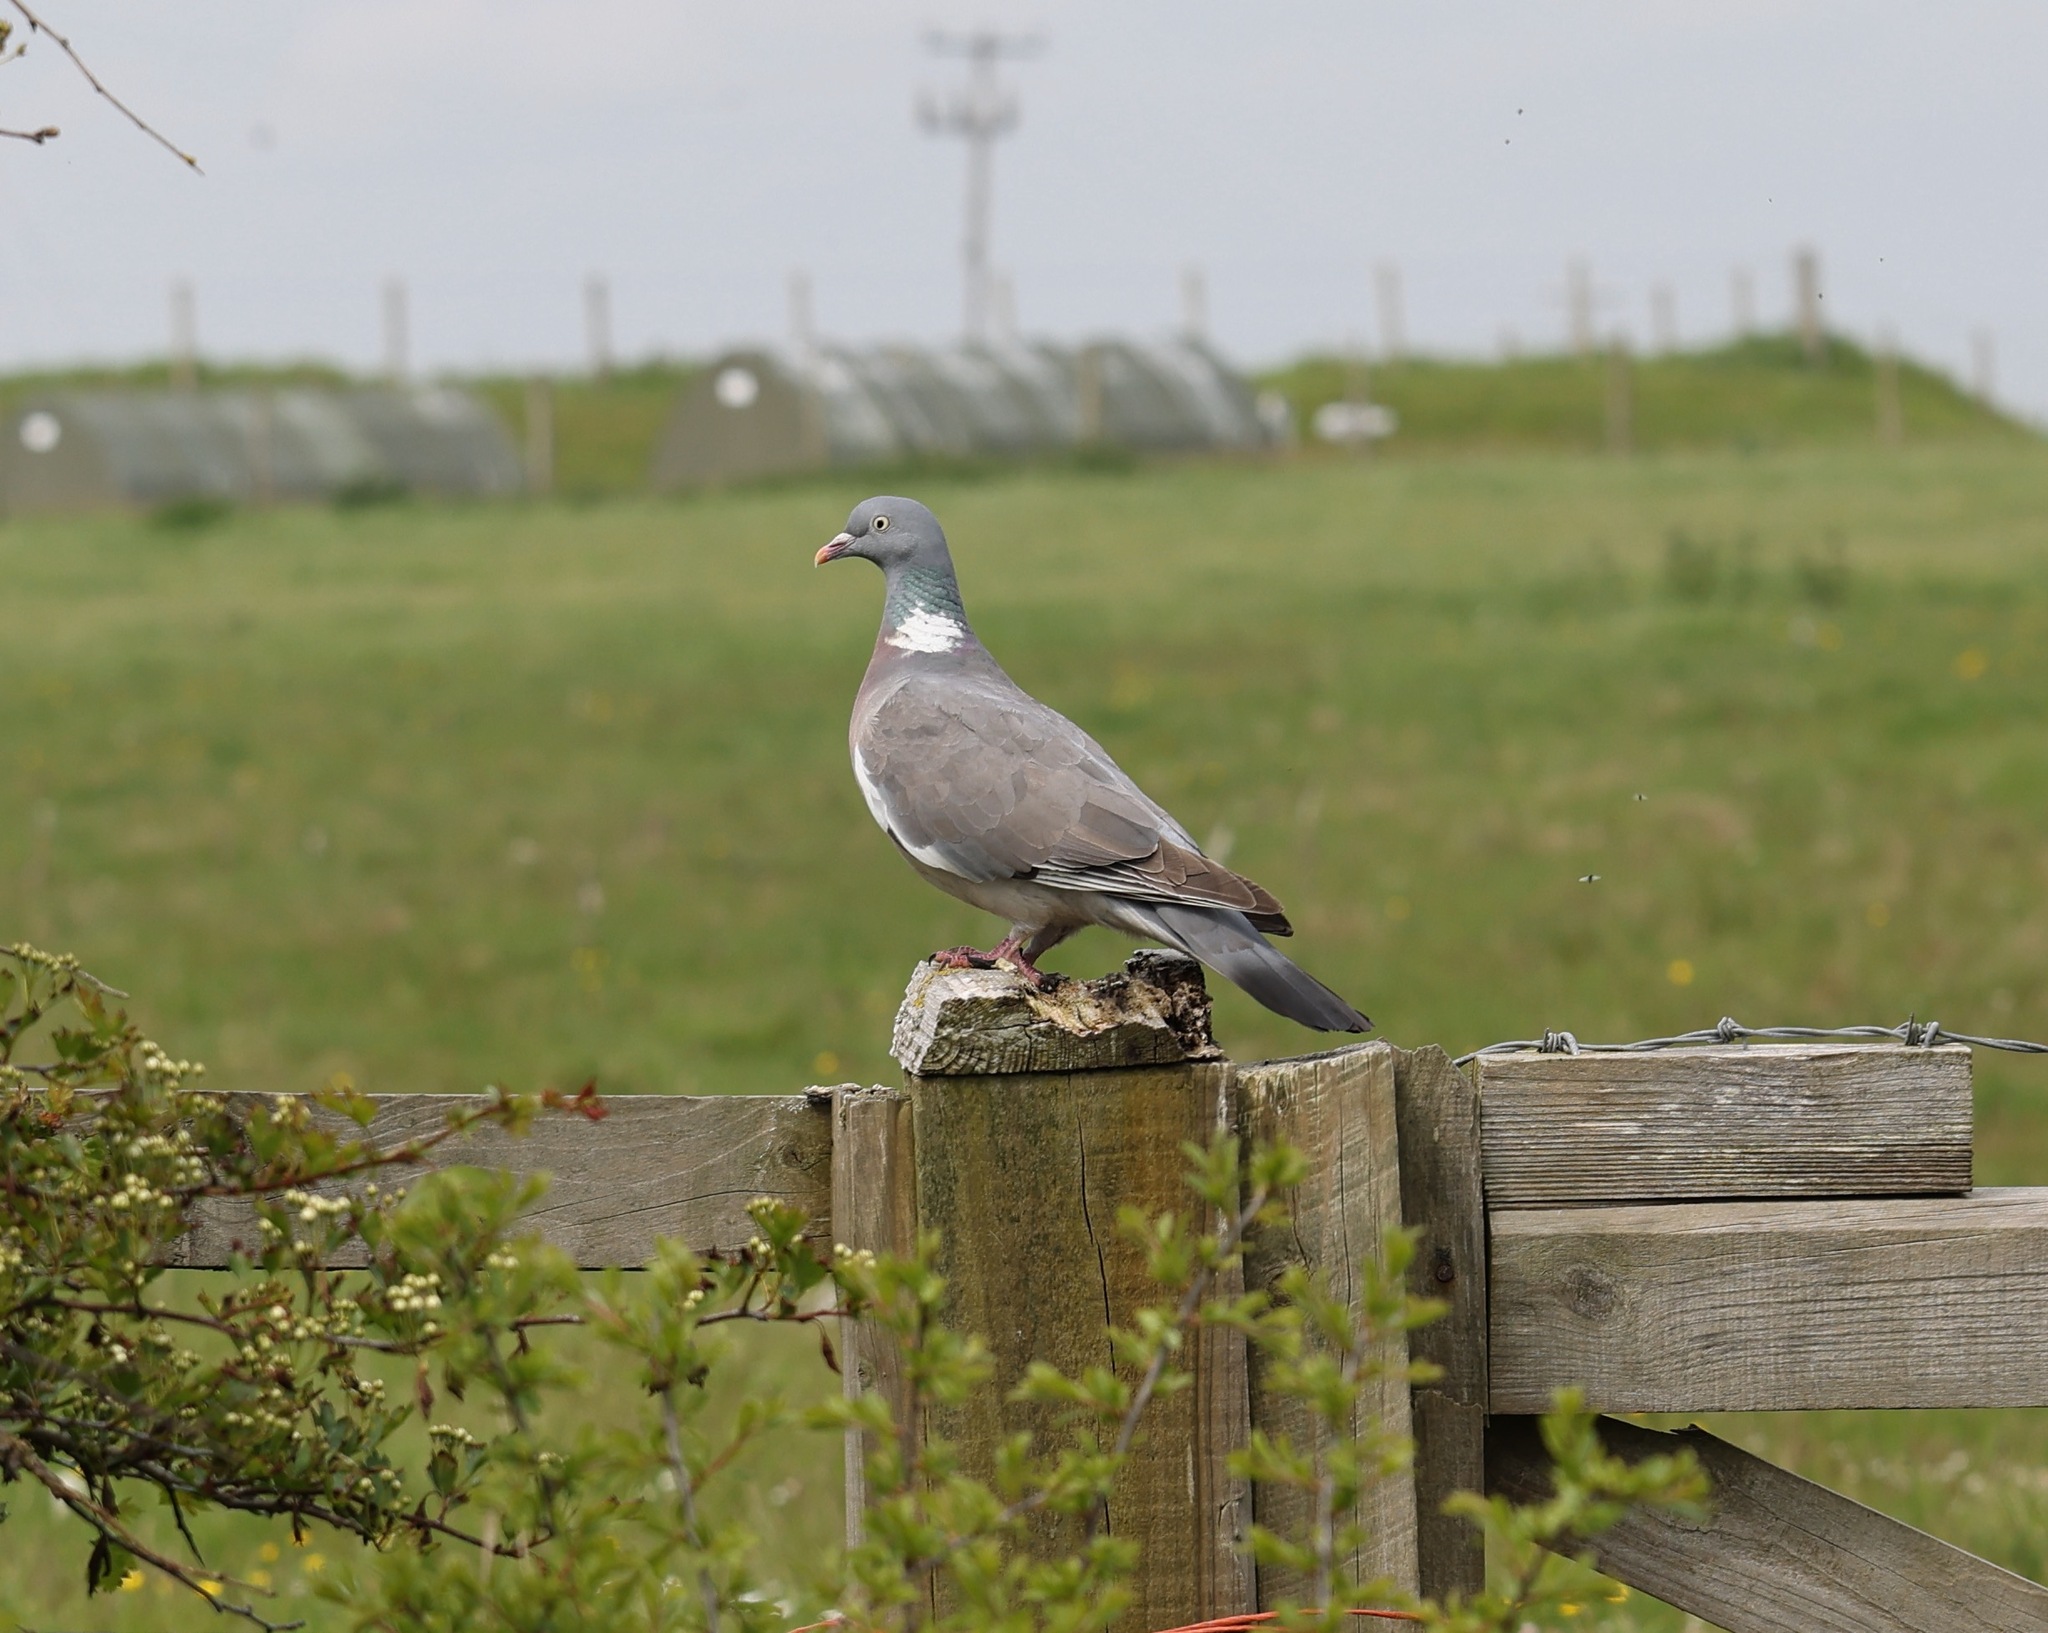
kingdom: Animalia
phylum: Chordata
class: Aves
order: Columbiformes
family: Columbidae
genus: Columba
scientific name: Columba palumbus
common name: Common wood pigeon
